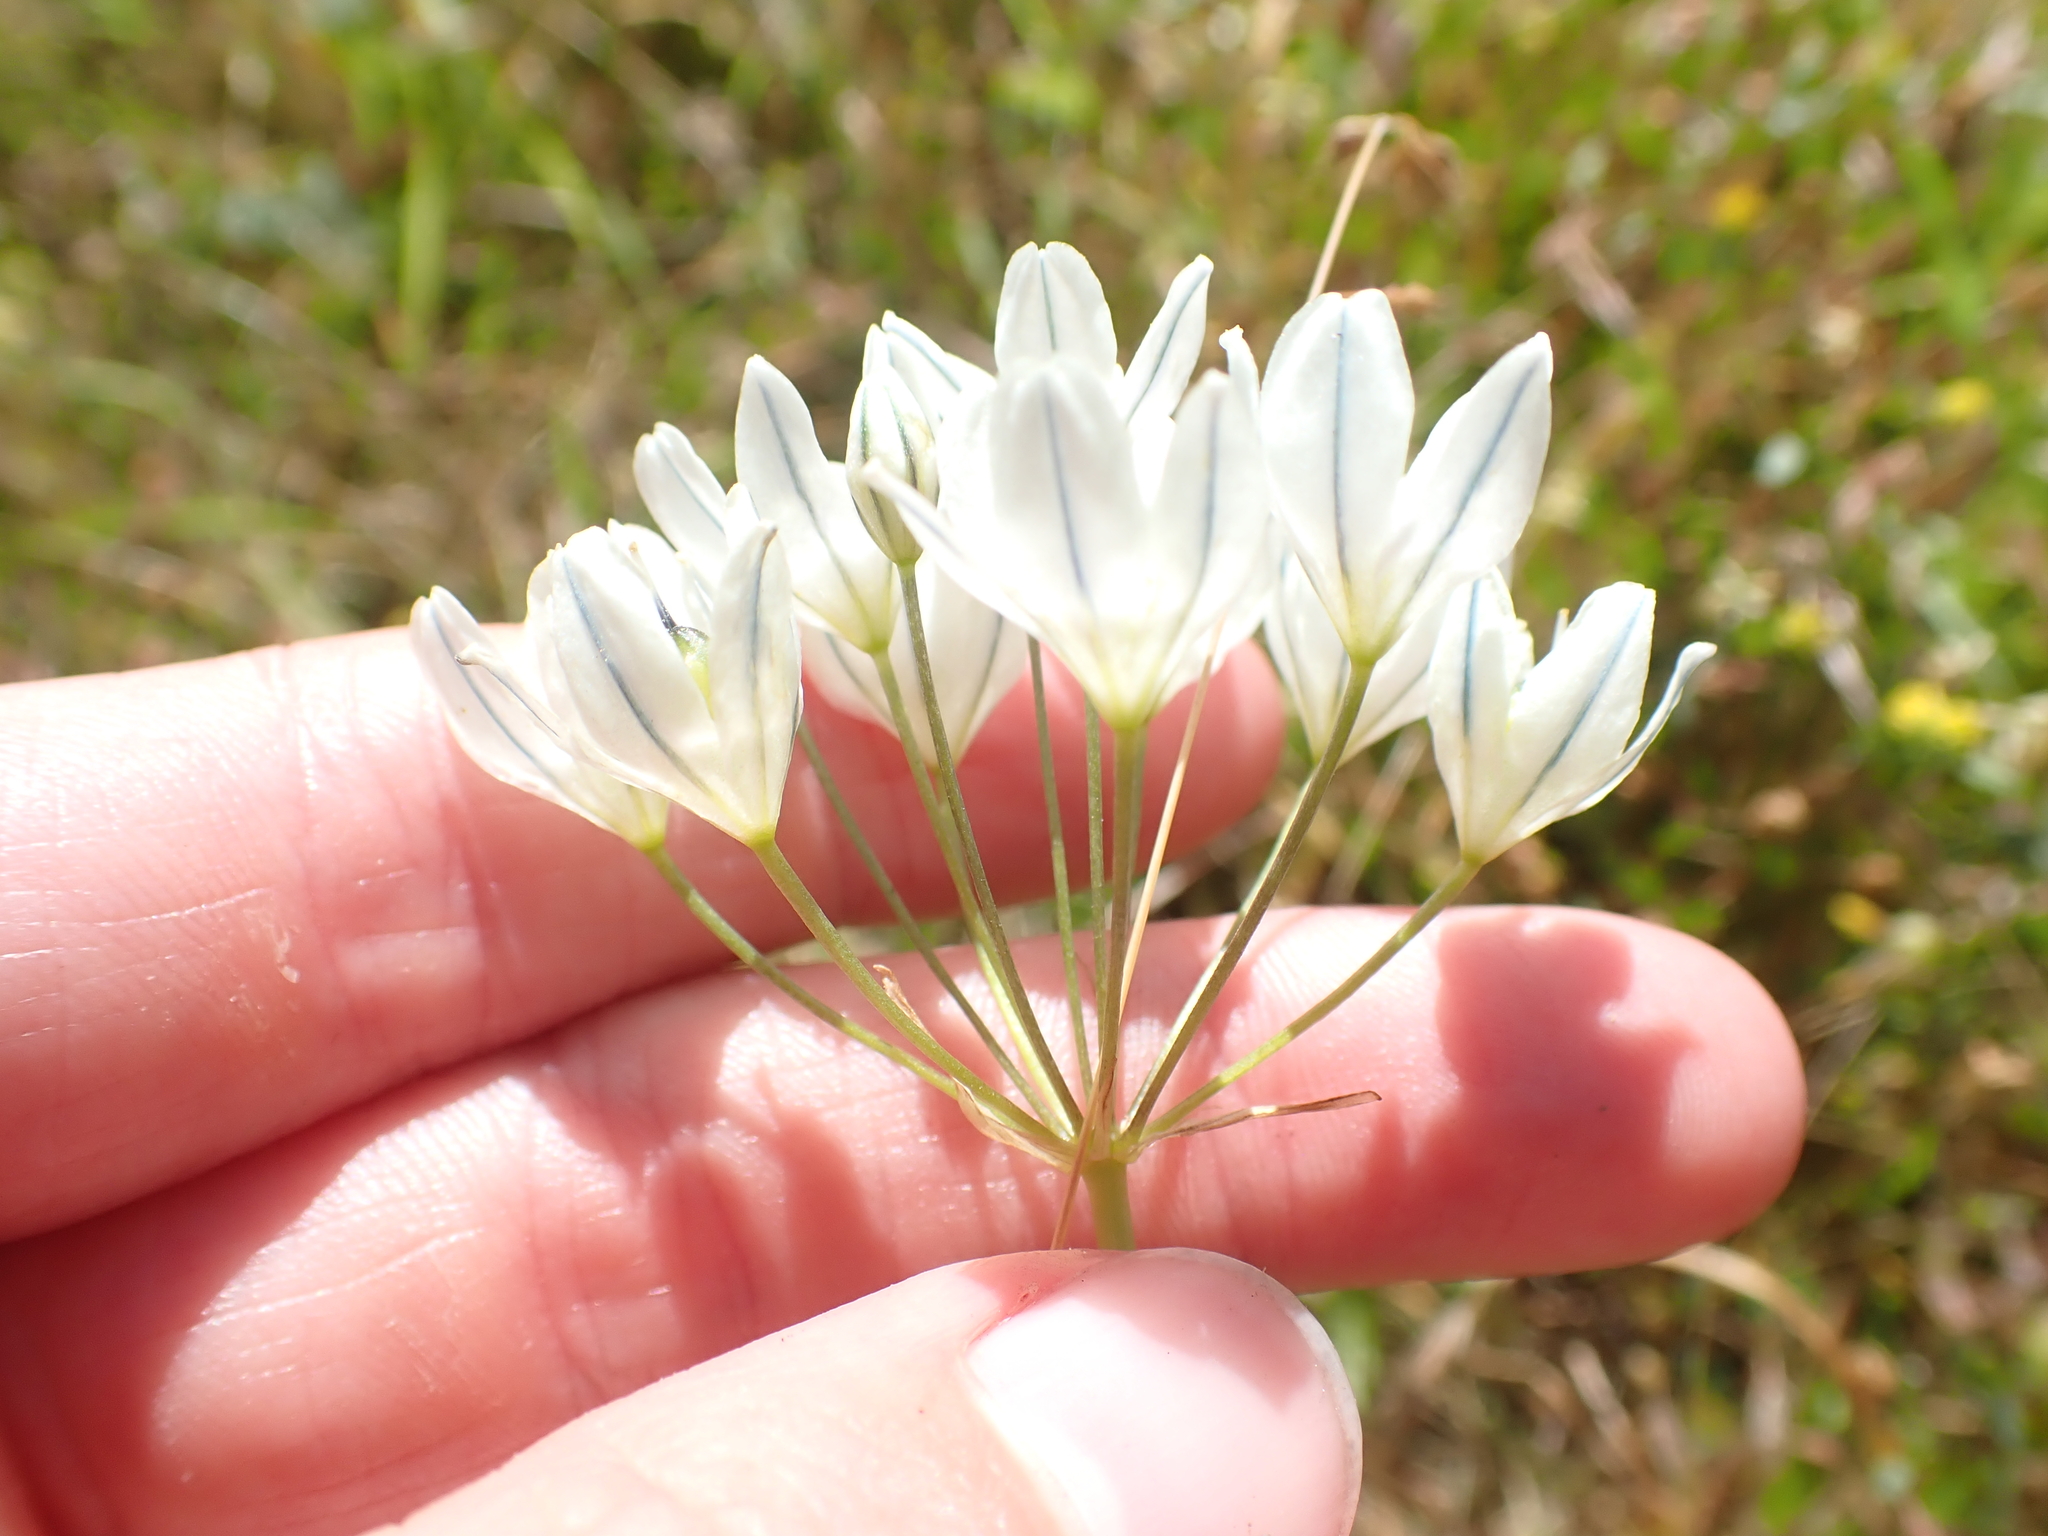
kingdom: Plantae
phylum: Tracheophyta
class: Liliopsida
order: Asparagales
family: Asparagaceae
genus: Triteleia
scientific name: Triteleia hyacinthina
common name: White brodiaea
